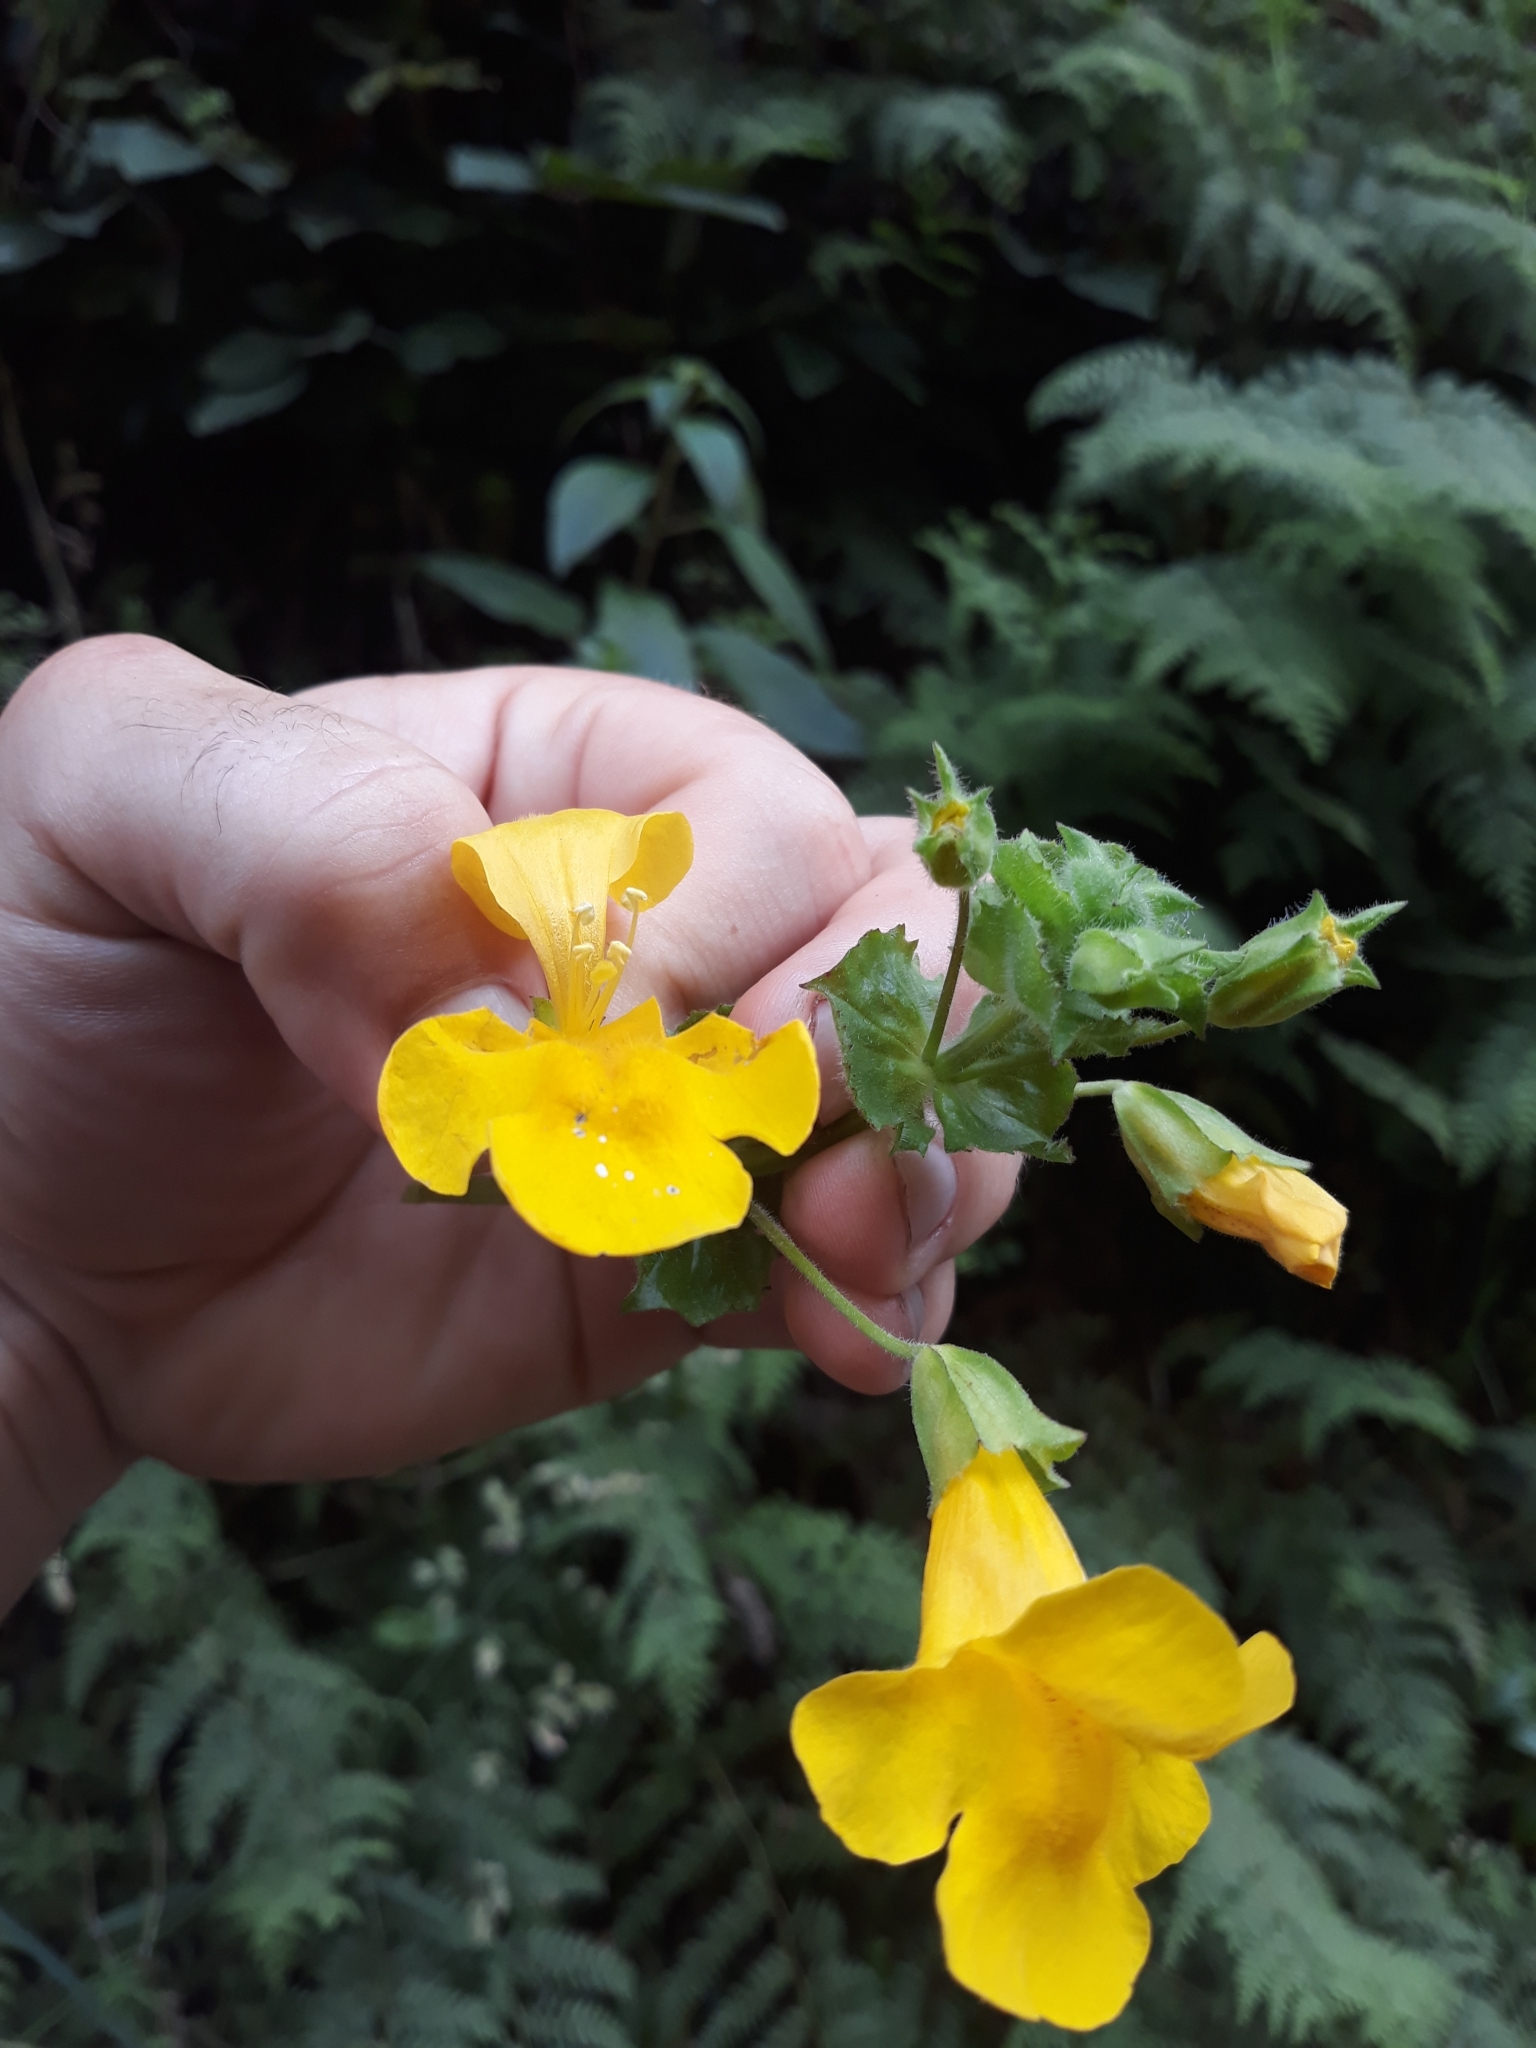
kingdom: Plantae
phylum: Tracheophyta
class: Magnoliopsida
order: Lamiales
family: Phrymaceae
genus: Erythranthe
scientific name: Erythranthe guttata
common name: Monkeyflower
